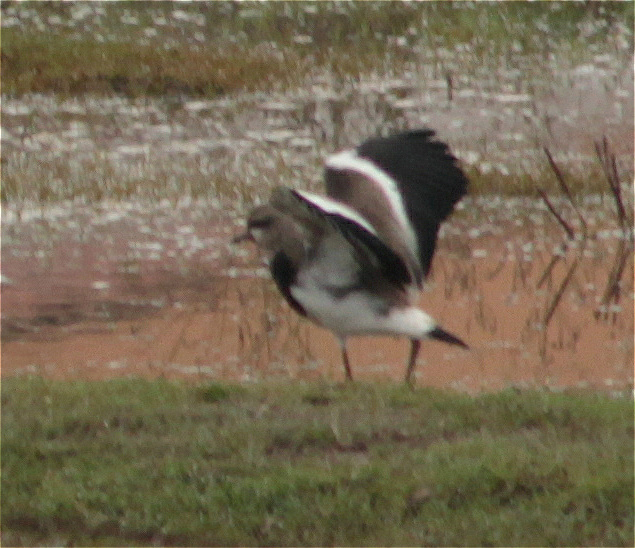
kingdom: Animalia
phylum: Chordata
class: Aves
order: Charadriiformes
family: Charadriidae
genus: Vanellus
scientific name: Vanellus chilensis
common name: Southern lapwing
